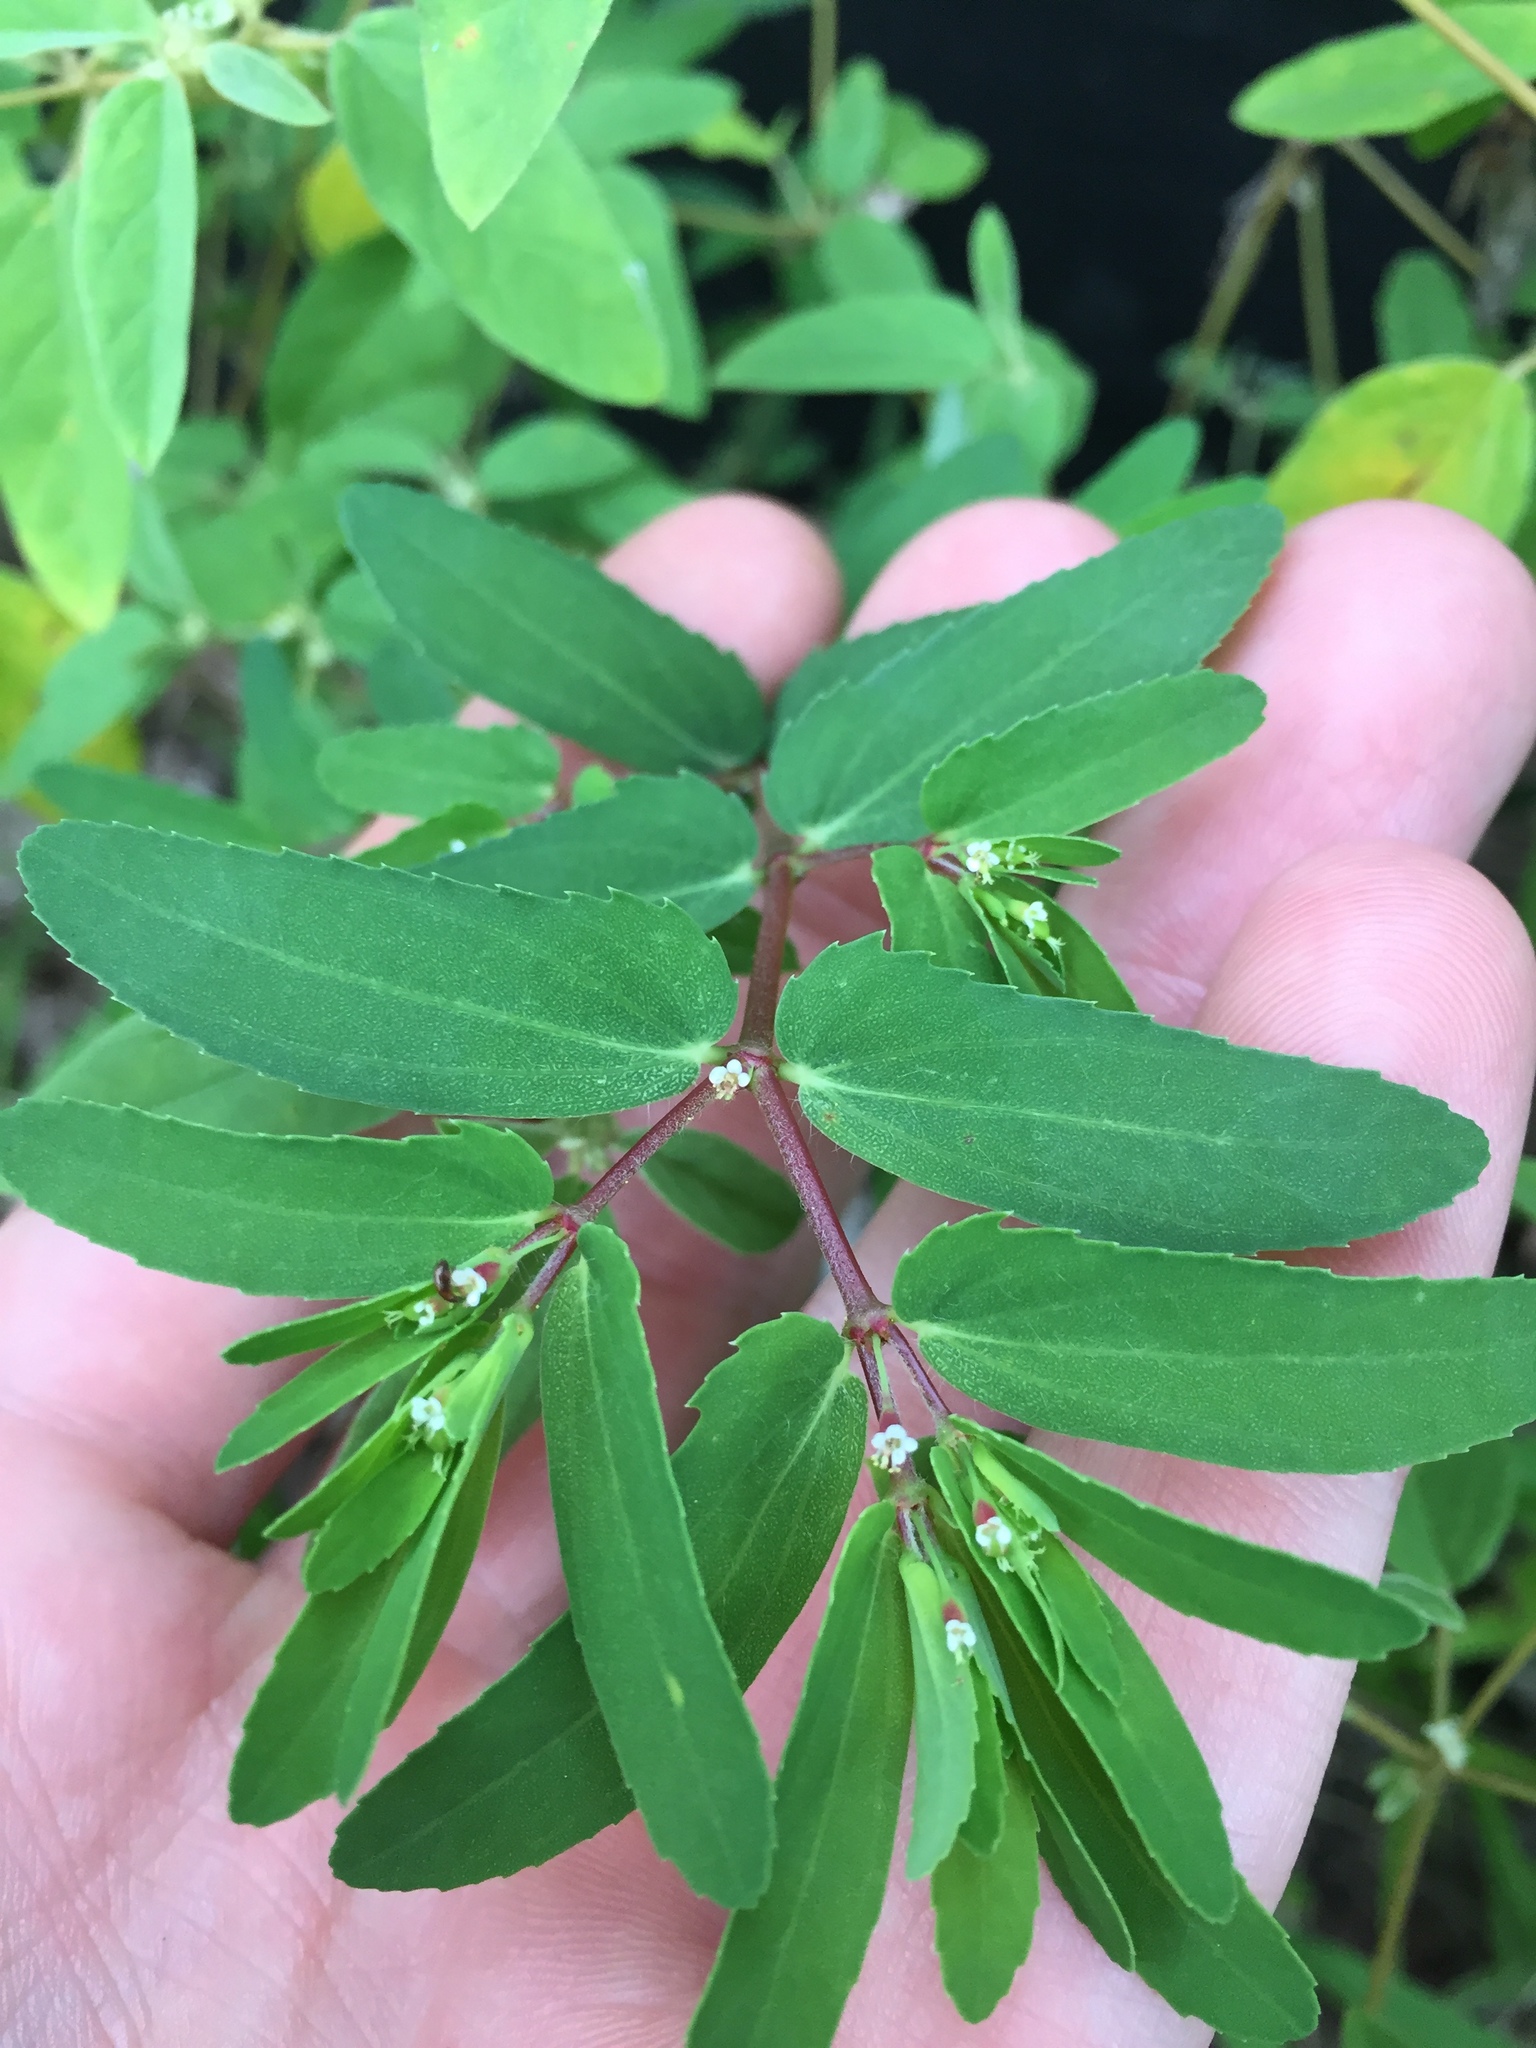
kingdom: Plantae
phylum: Tracheophyta
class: Magnoliopsida
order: Malpighiales
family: Euphorbiaceae
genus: Euphorbia
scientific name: Euphorbia nutans
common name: Eyebane
